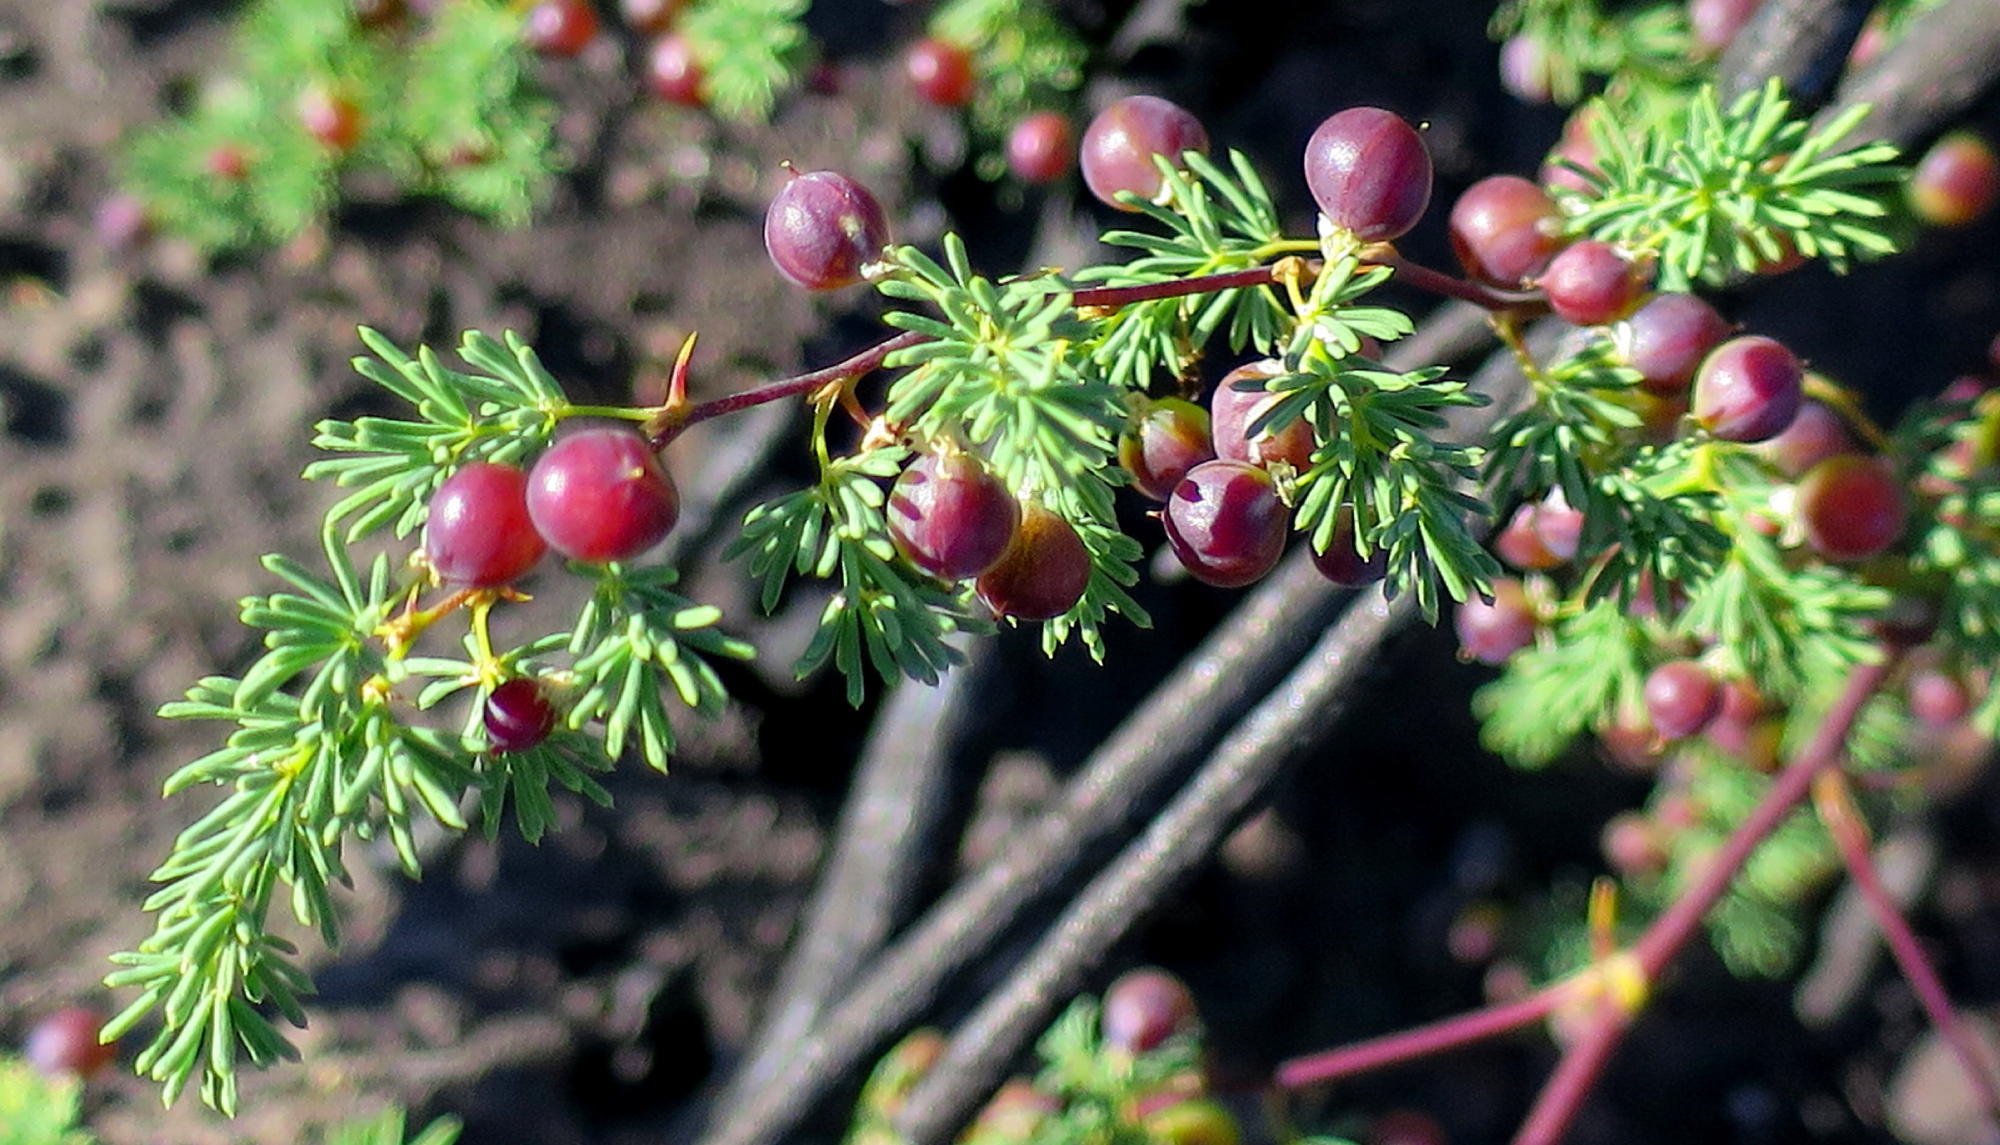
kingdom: Plantae
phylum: Tracheophyta
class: Liliopsida
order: Asparagales
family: Asparagaceae
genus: Asparagus
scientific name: Asparagus rubicundus
